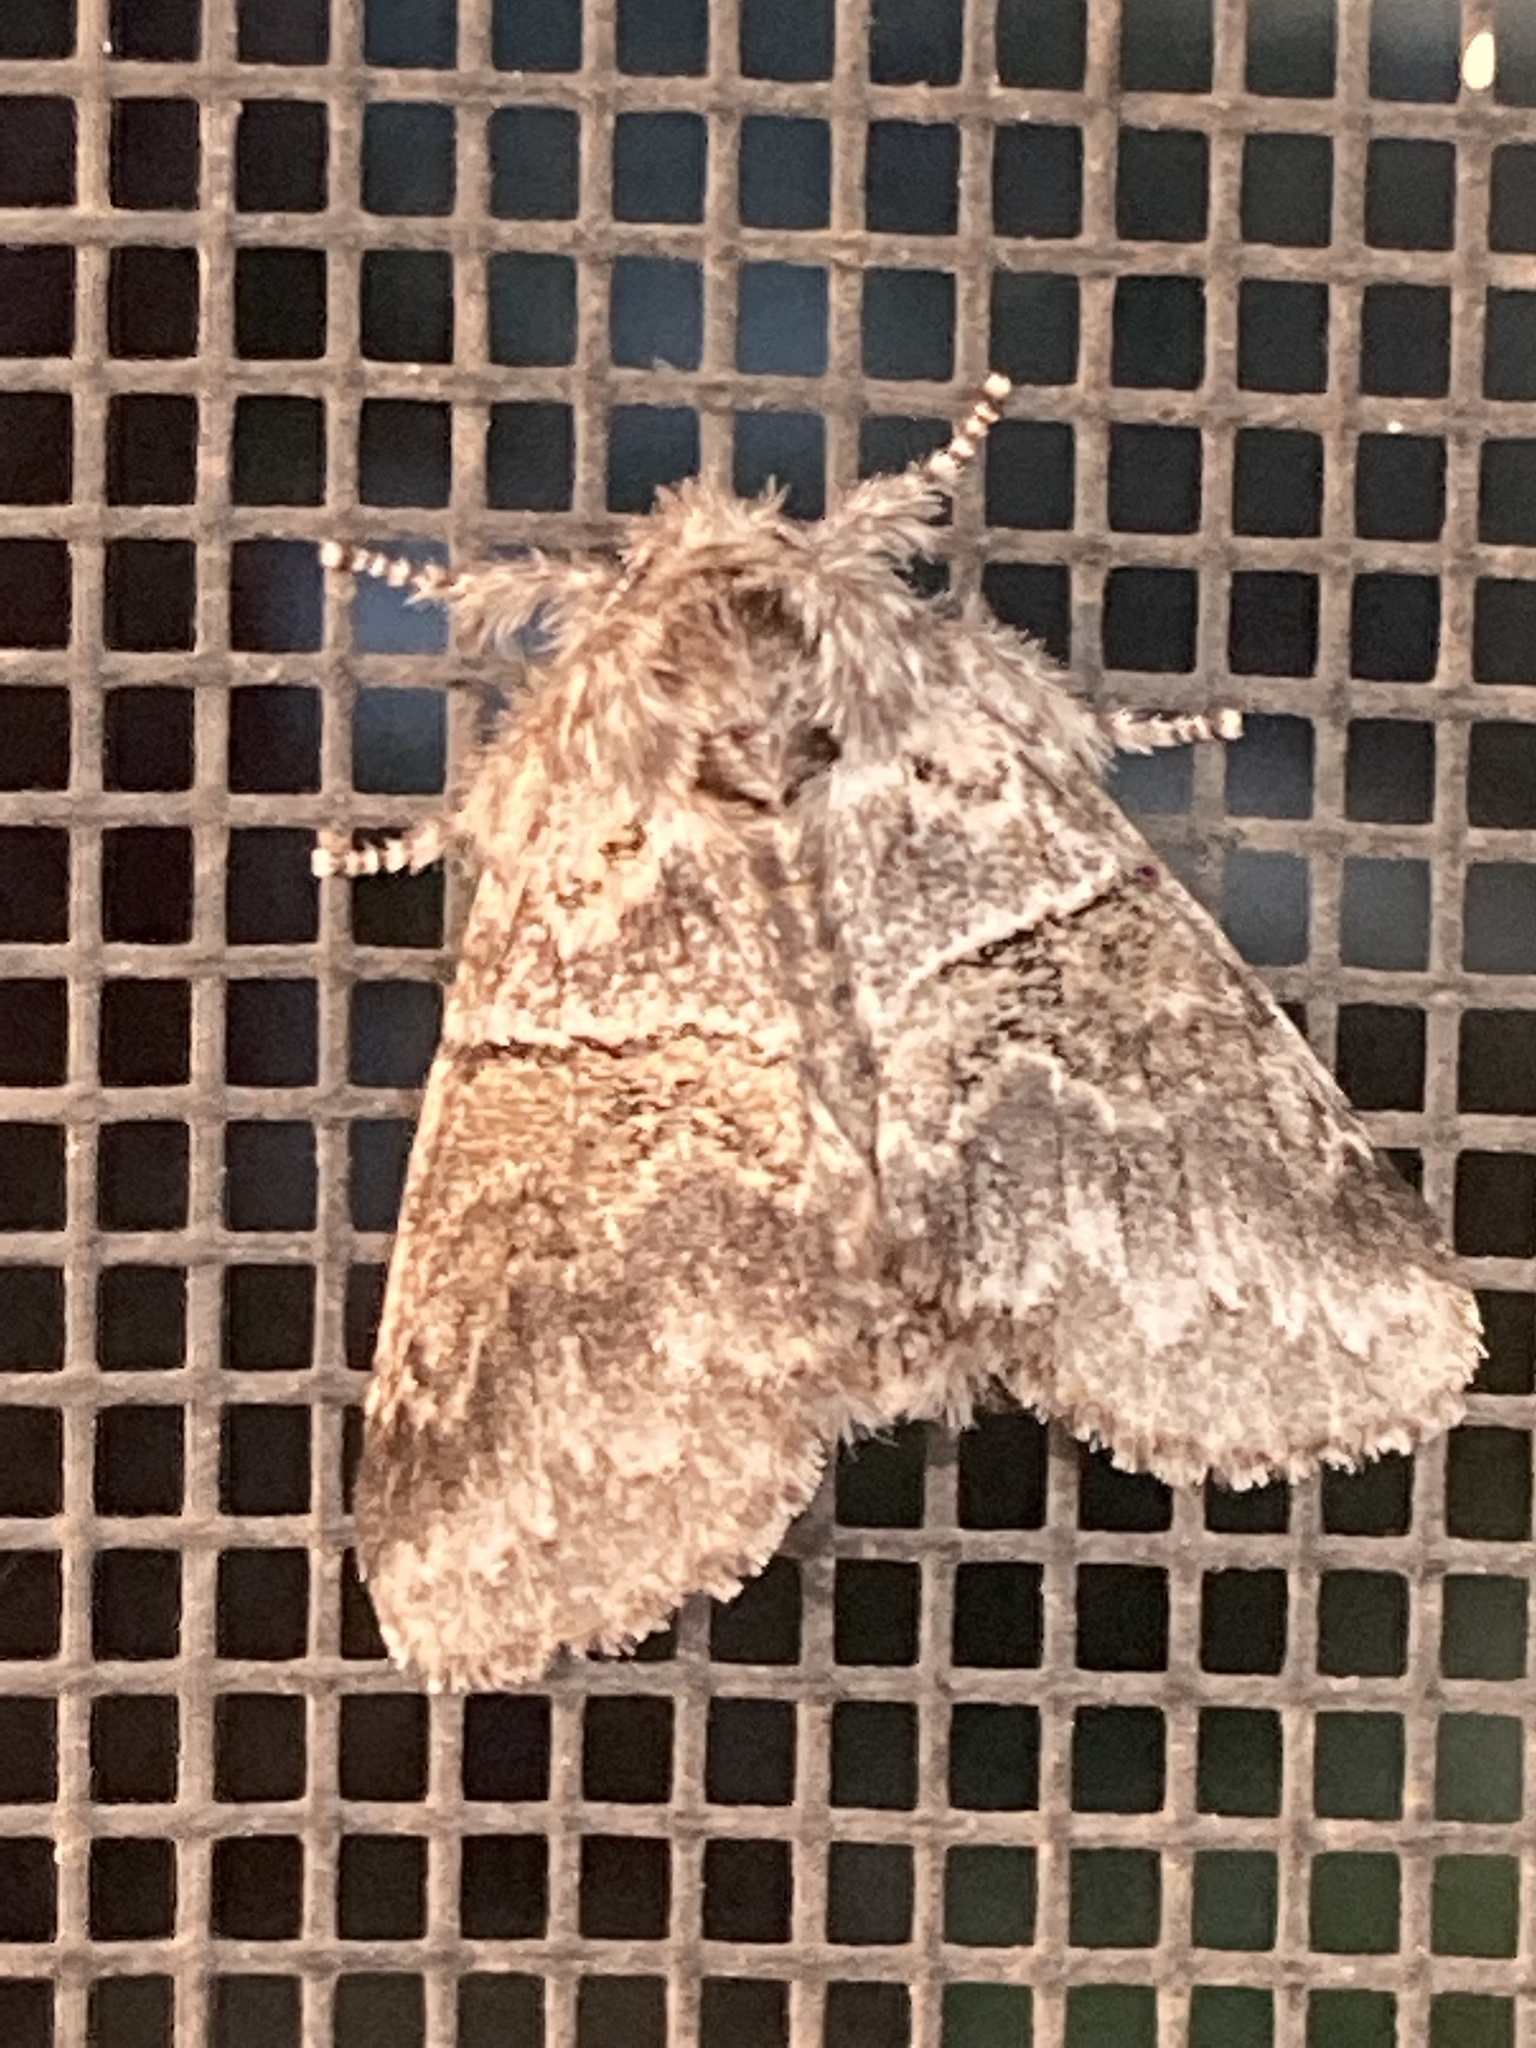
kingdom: Animalia
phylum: Arthropoda
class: Insecta
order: Lepidoptera
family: Notodontidae
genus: Gluphisia
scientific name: Gluphisia septentrionis
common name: Common gluphisia
